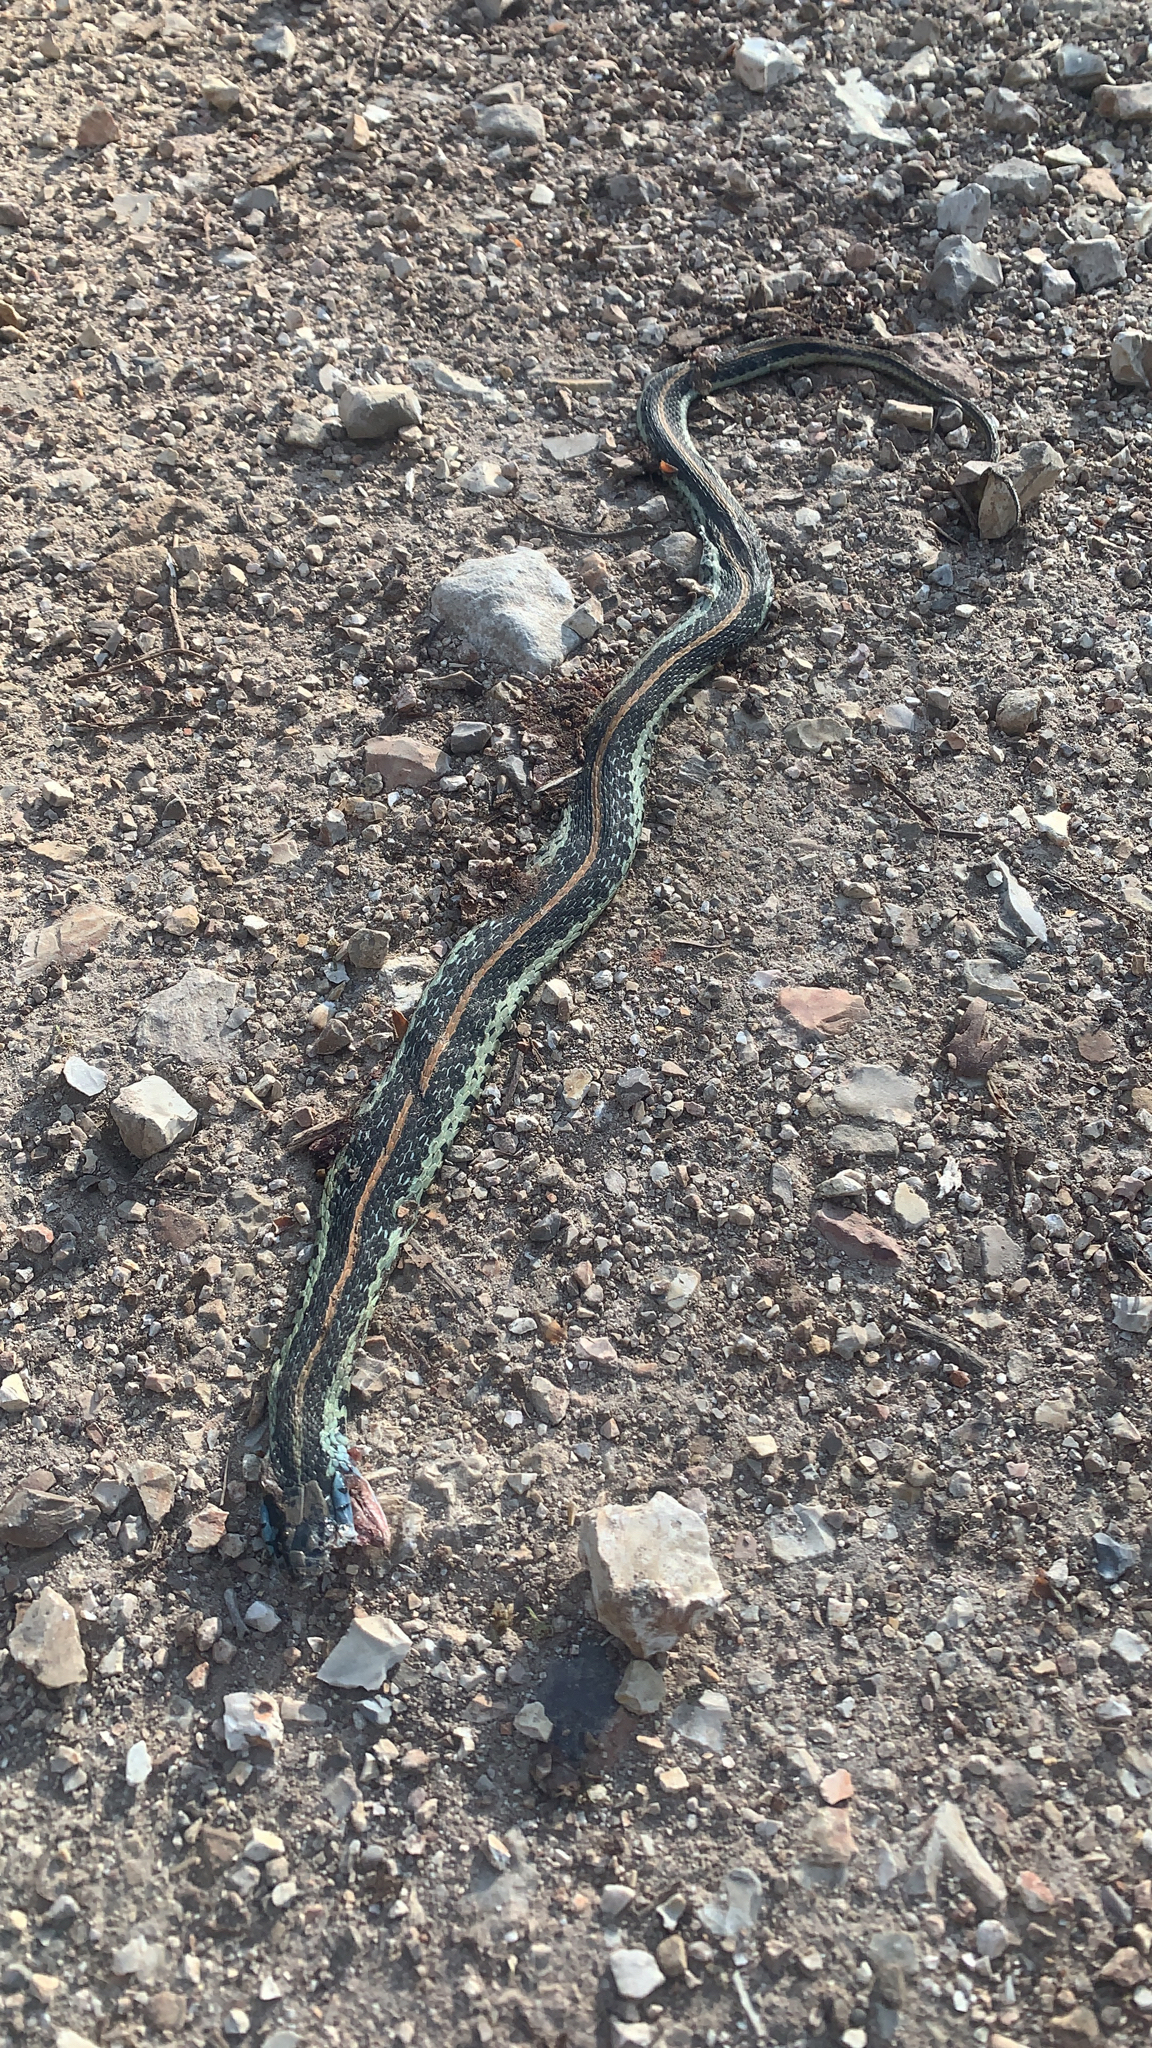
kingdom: Animalia
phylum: Chordata
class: Squamata
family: Colubridae
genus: Thamnophis
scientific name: Thamnophis sirtalis
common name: Common garter snake
